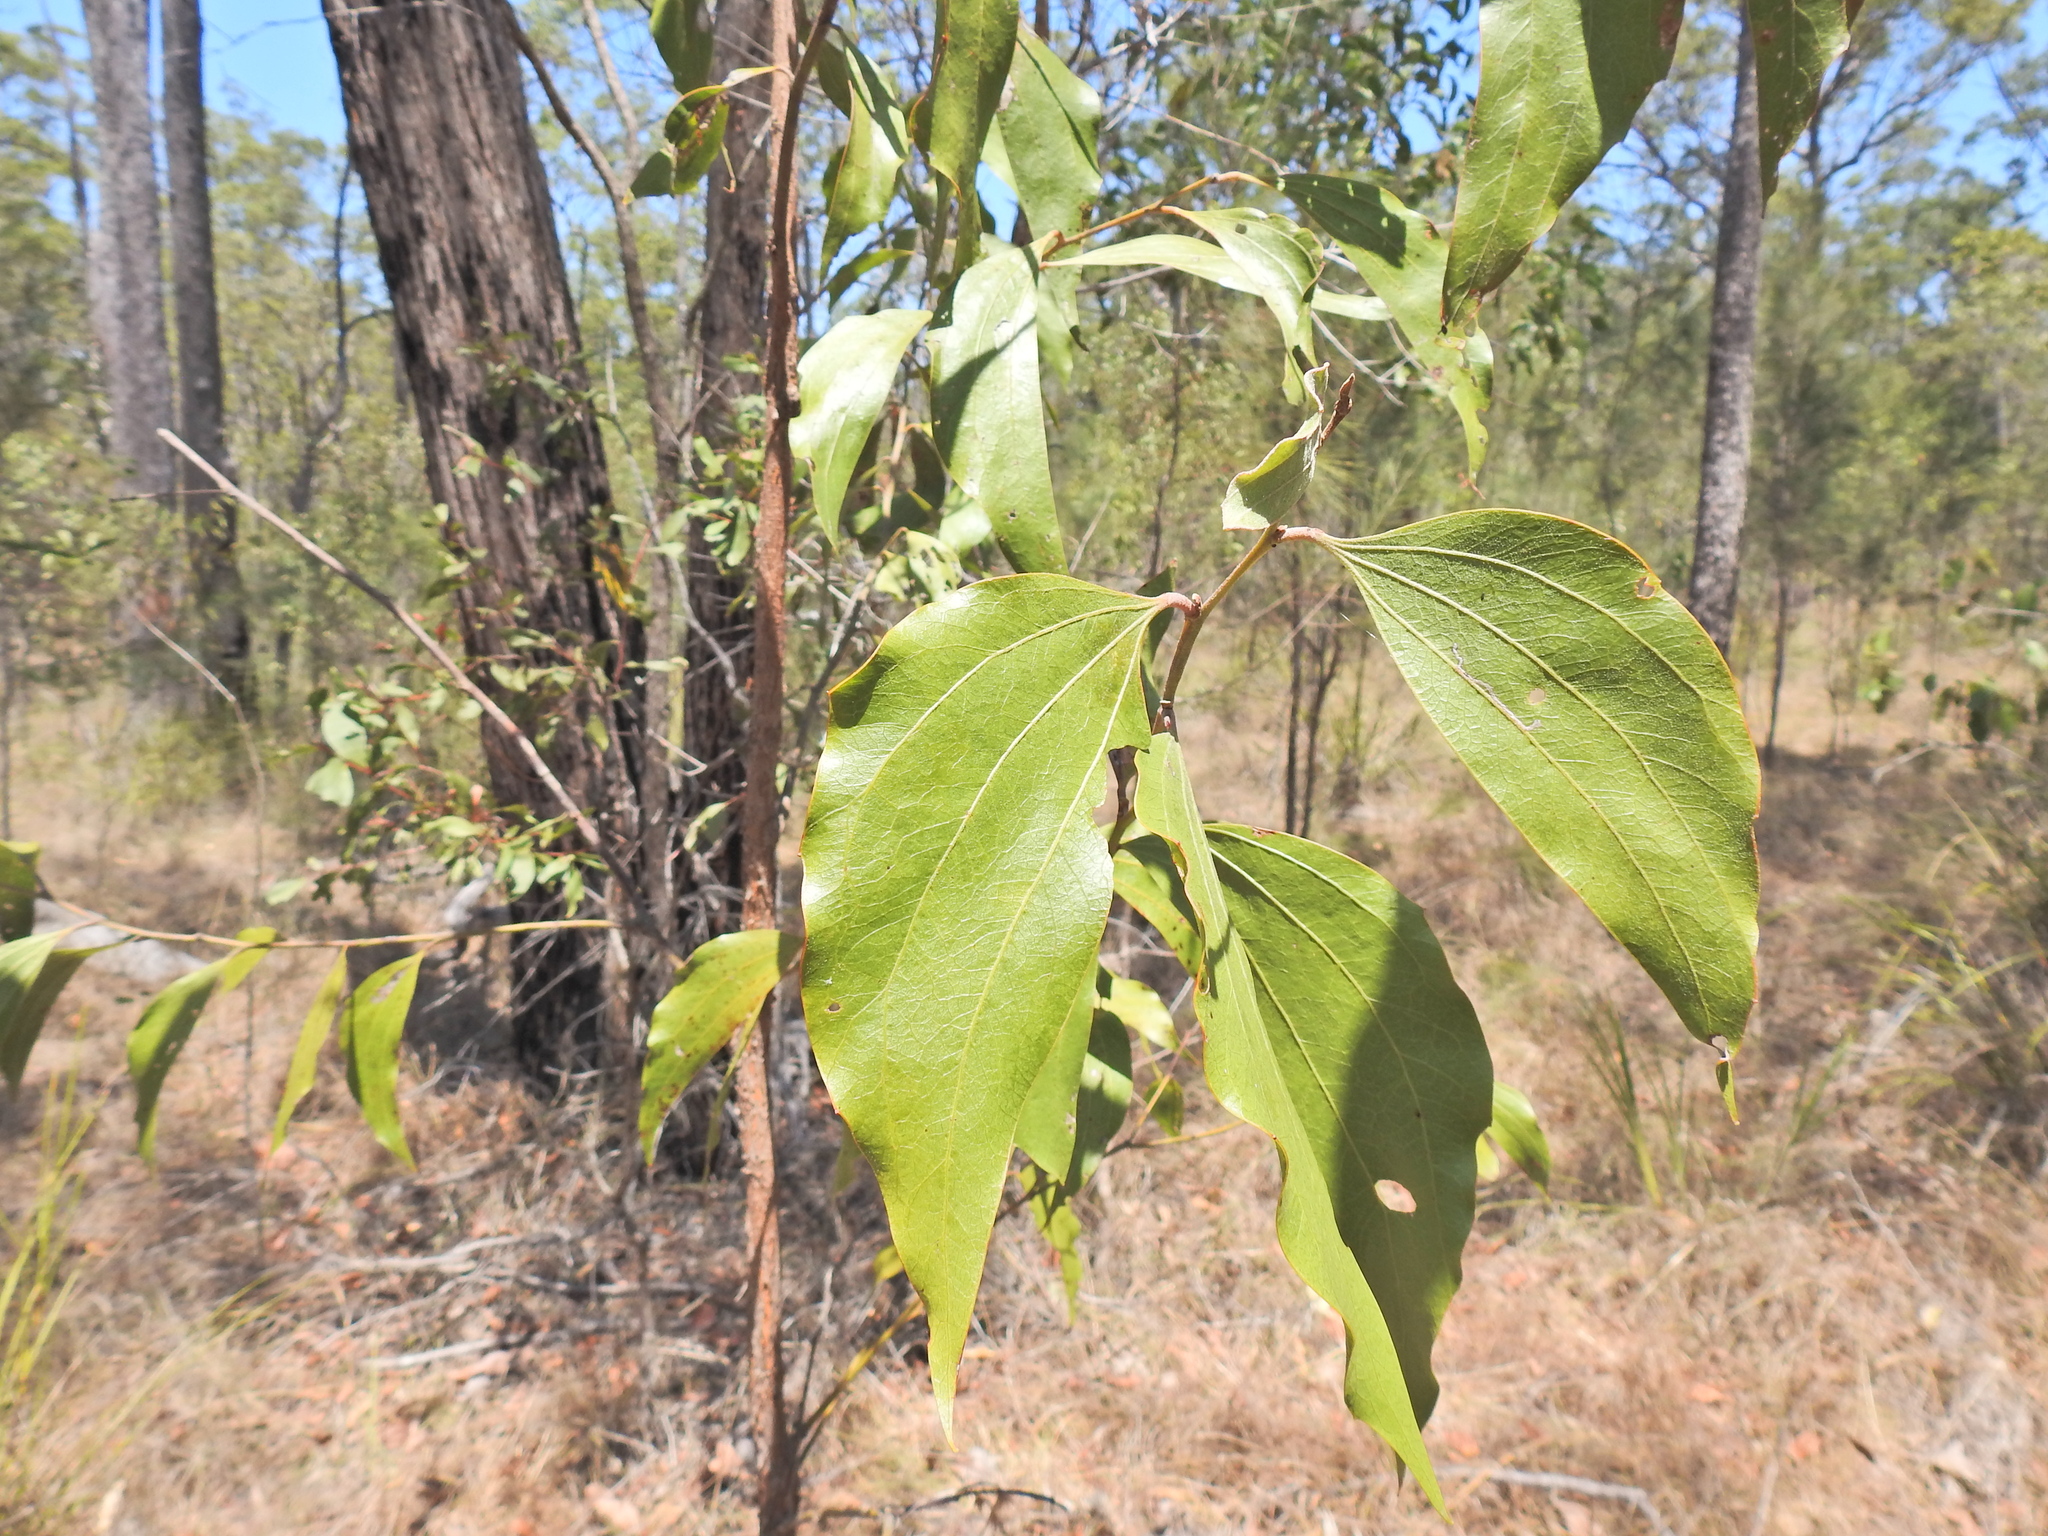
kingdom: Plantae
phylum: Tracheophyta
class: Magnoliopsida
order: Fabales
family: Fabaceae
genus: Acacia
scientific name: Acacia flavescens
